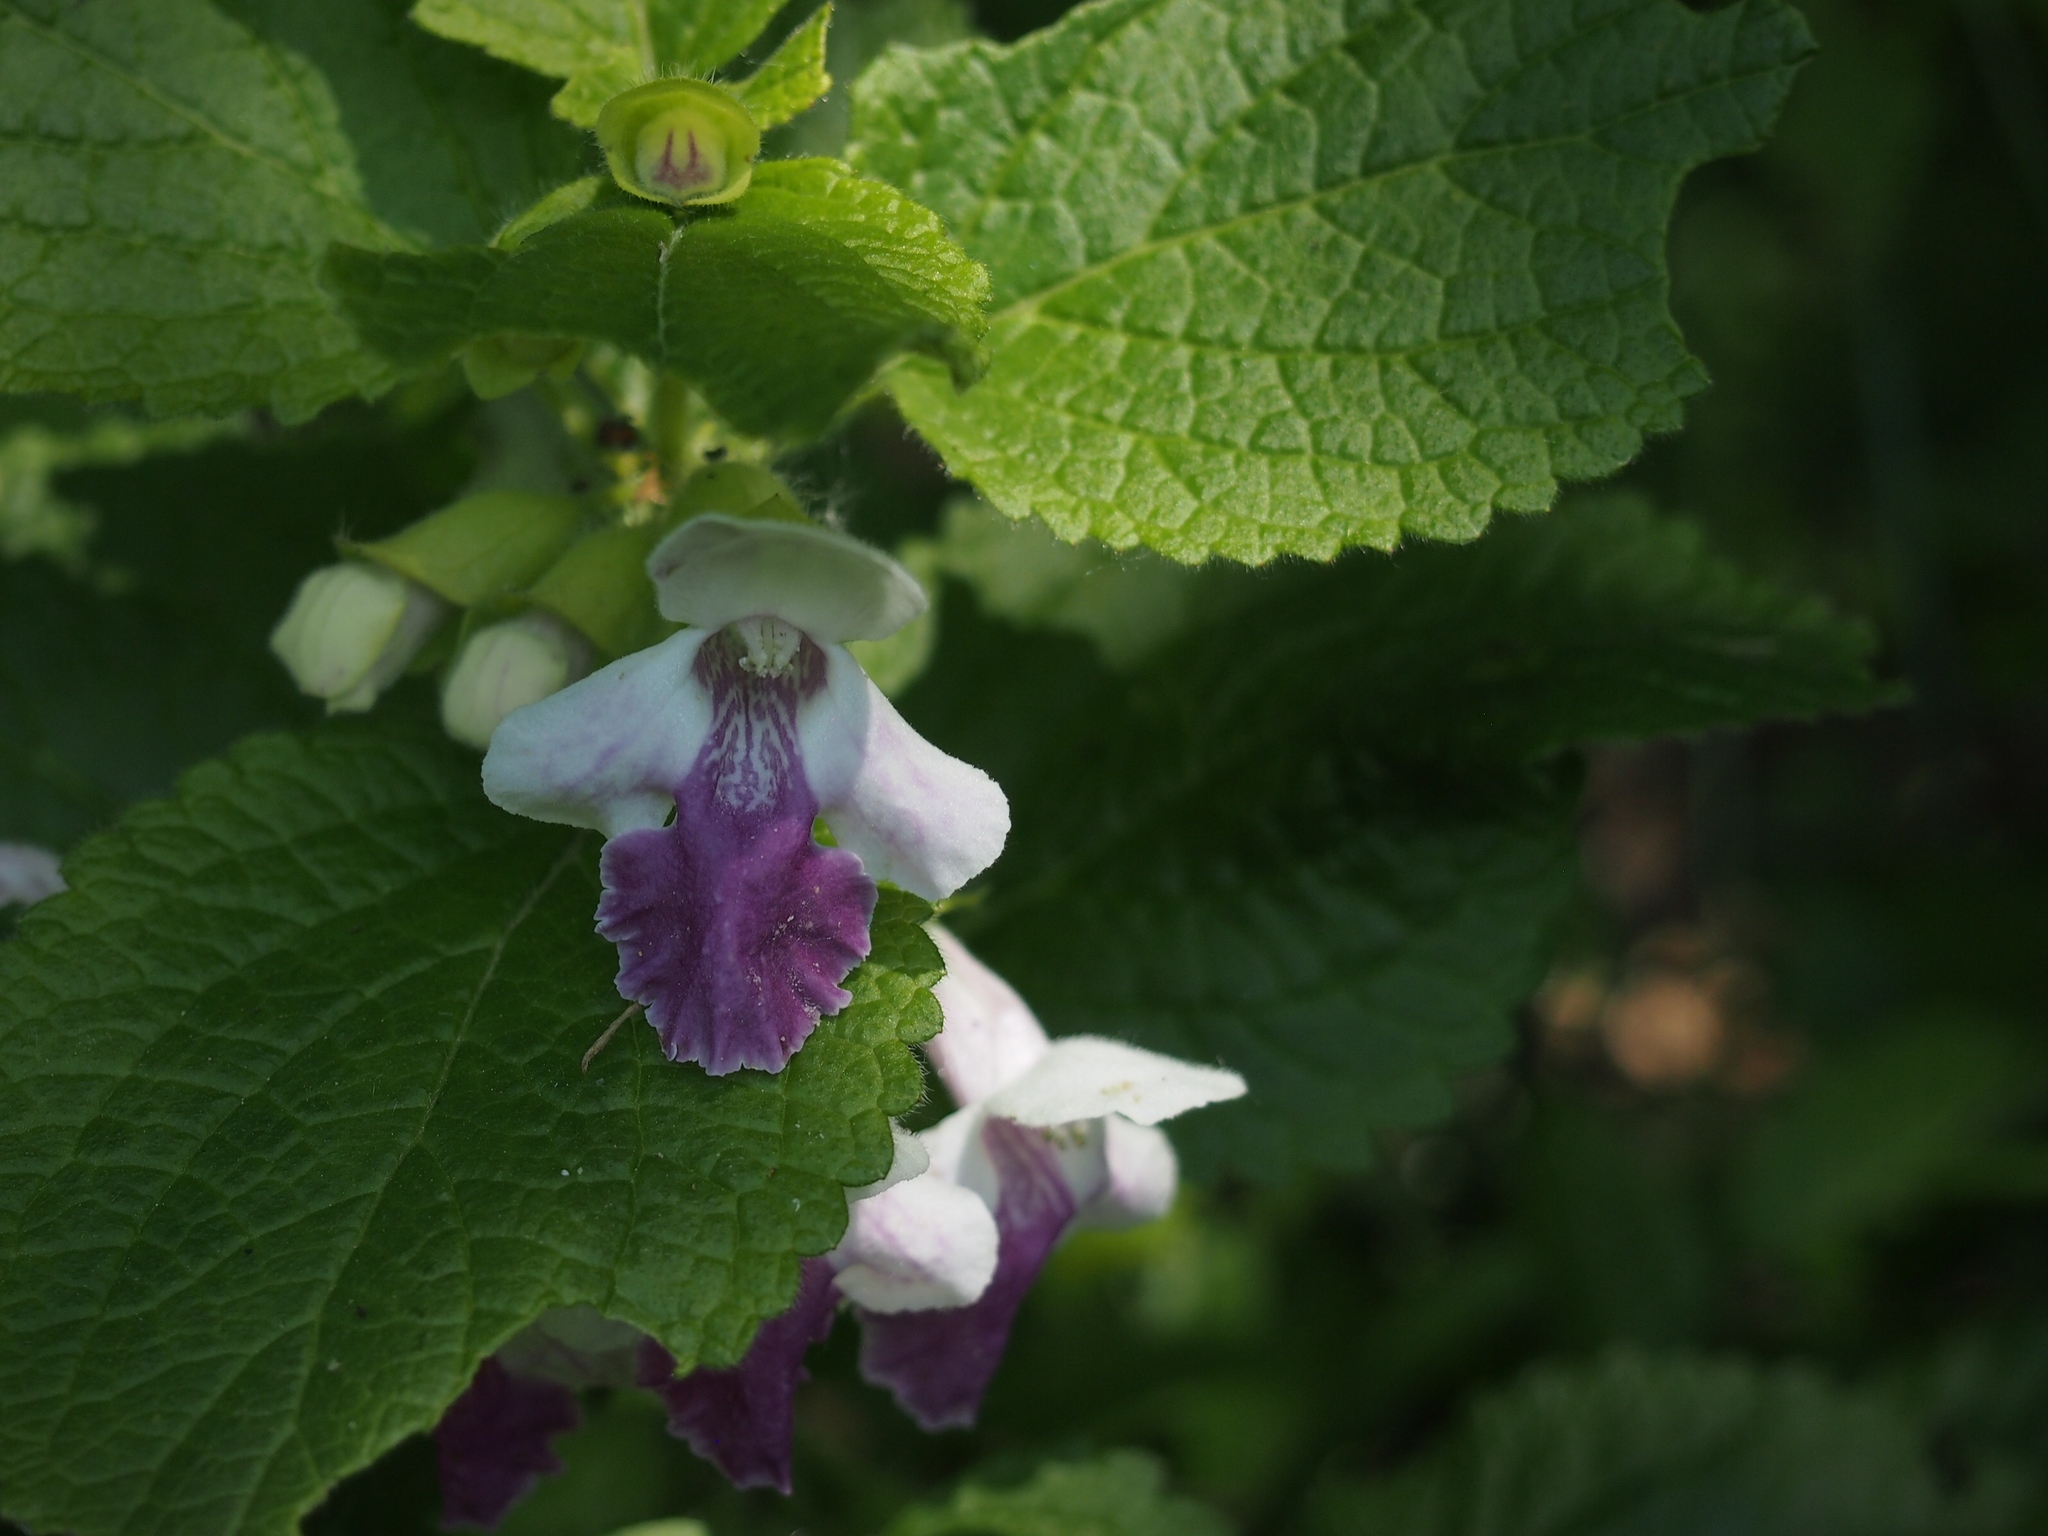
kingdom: Plantae
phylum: Tracheophyta
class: Magnoliopsida
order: Lamiales
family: Lamiaceae
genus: Melittis
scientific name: Melittis melissophyllum
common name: Bastard balm
